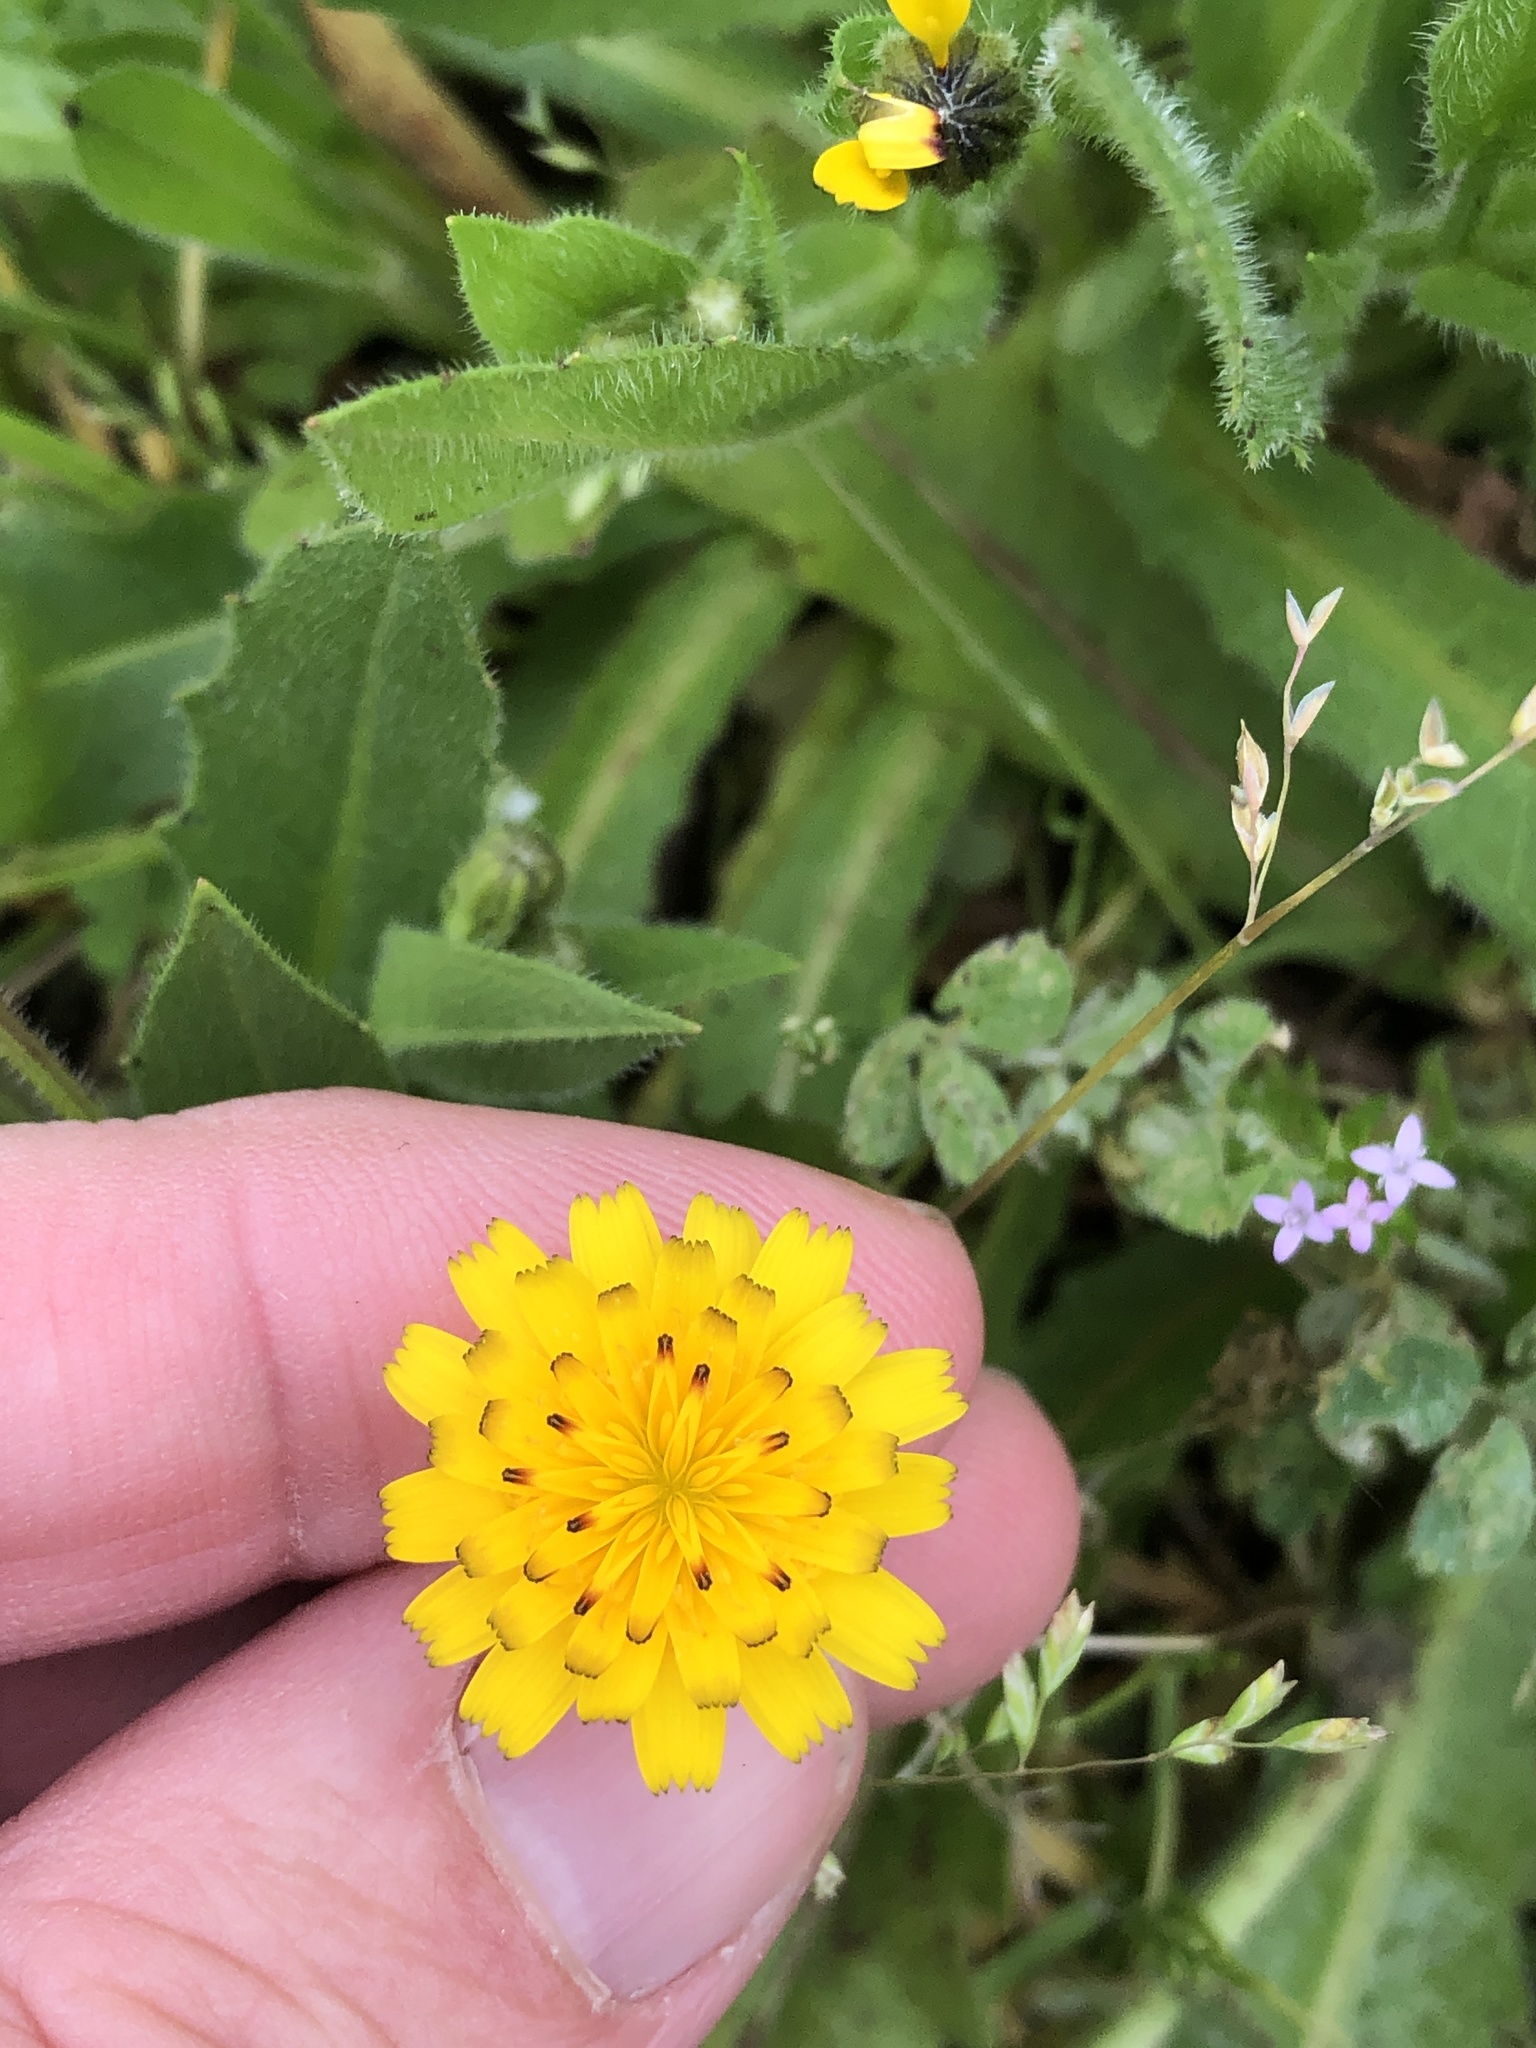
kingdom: Plantae
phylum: Tracheophyta
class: Magnoliopsida
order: Asterales
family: Asteraceae
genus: Hedypnois
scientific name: Hedypnois rhagadioloides
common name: Cretan weed
